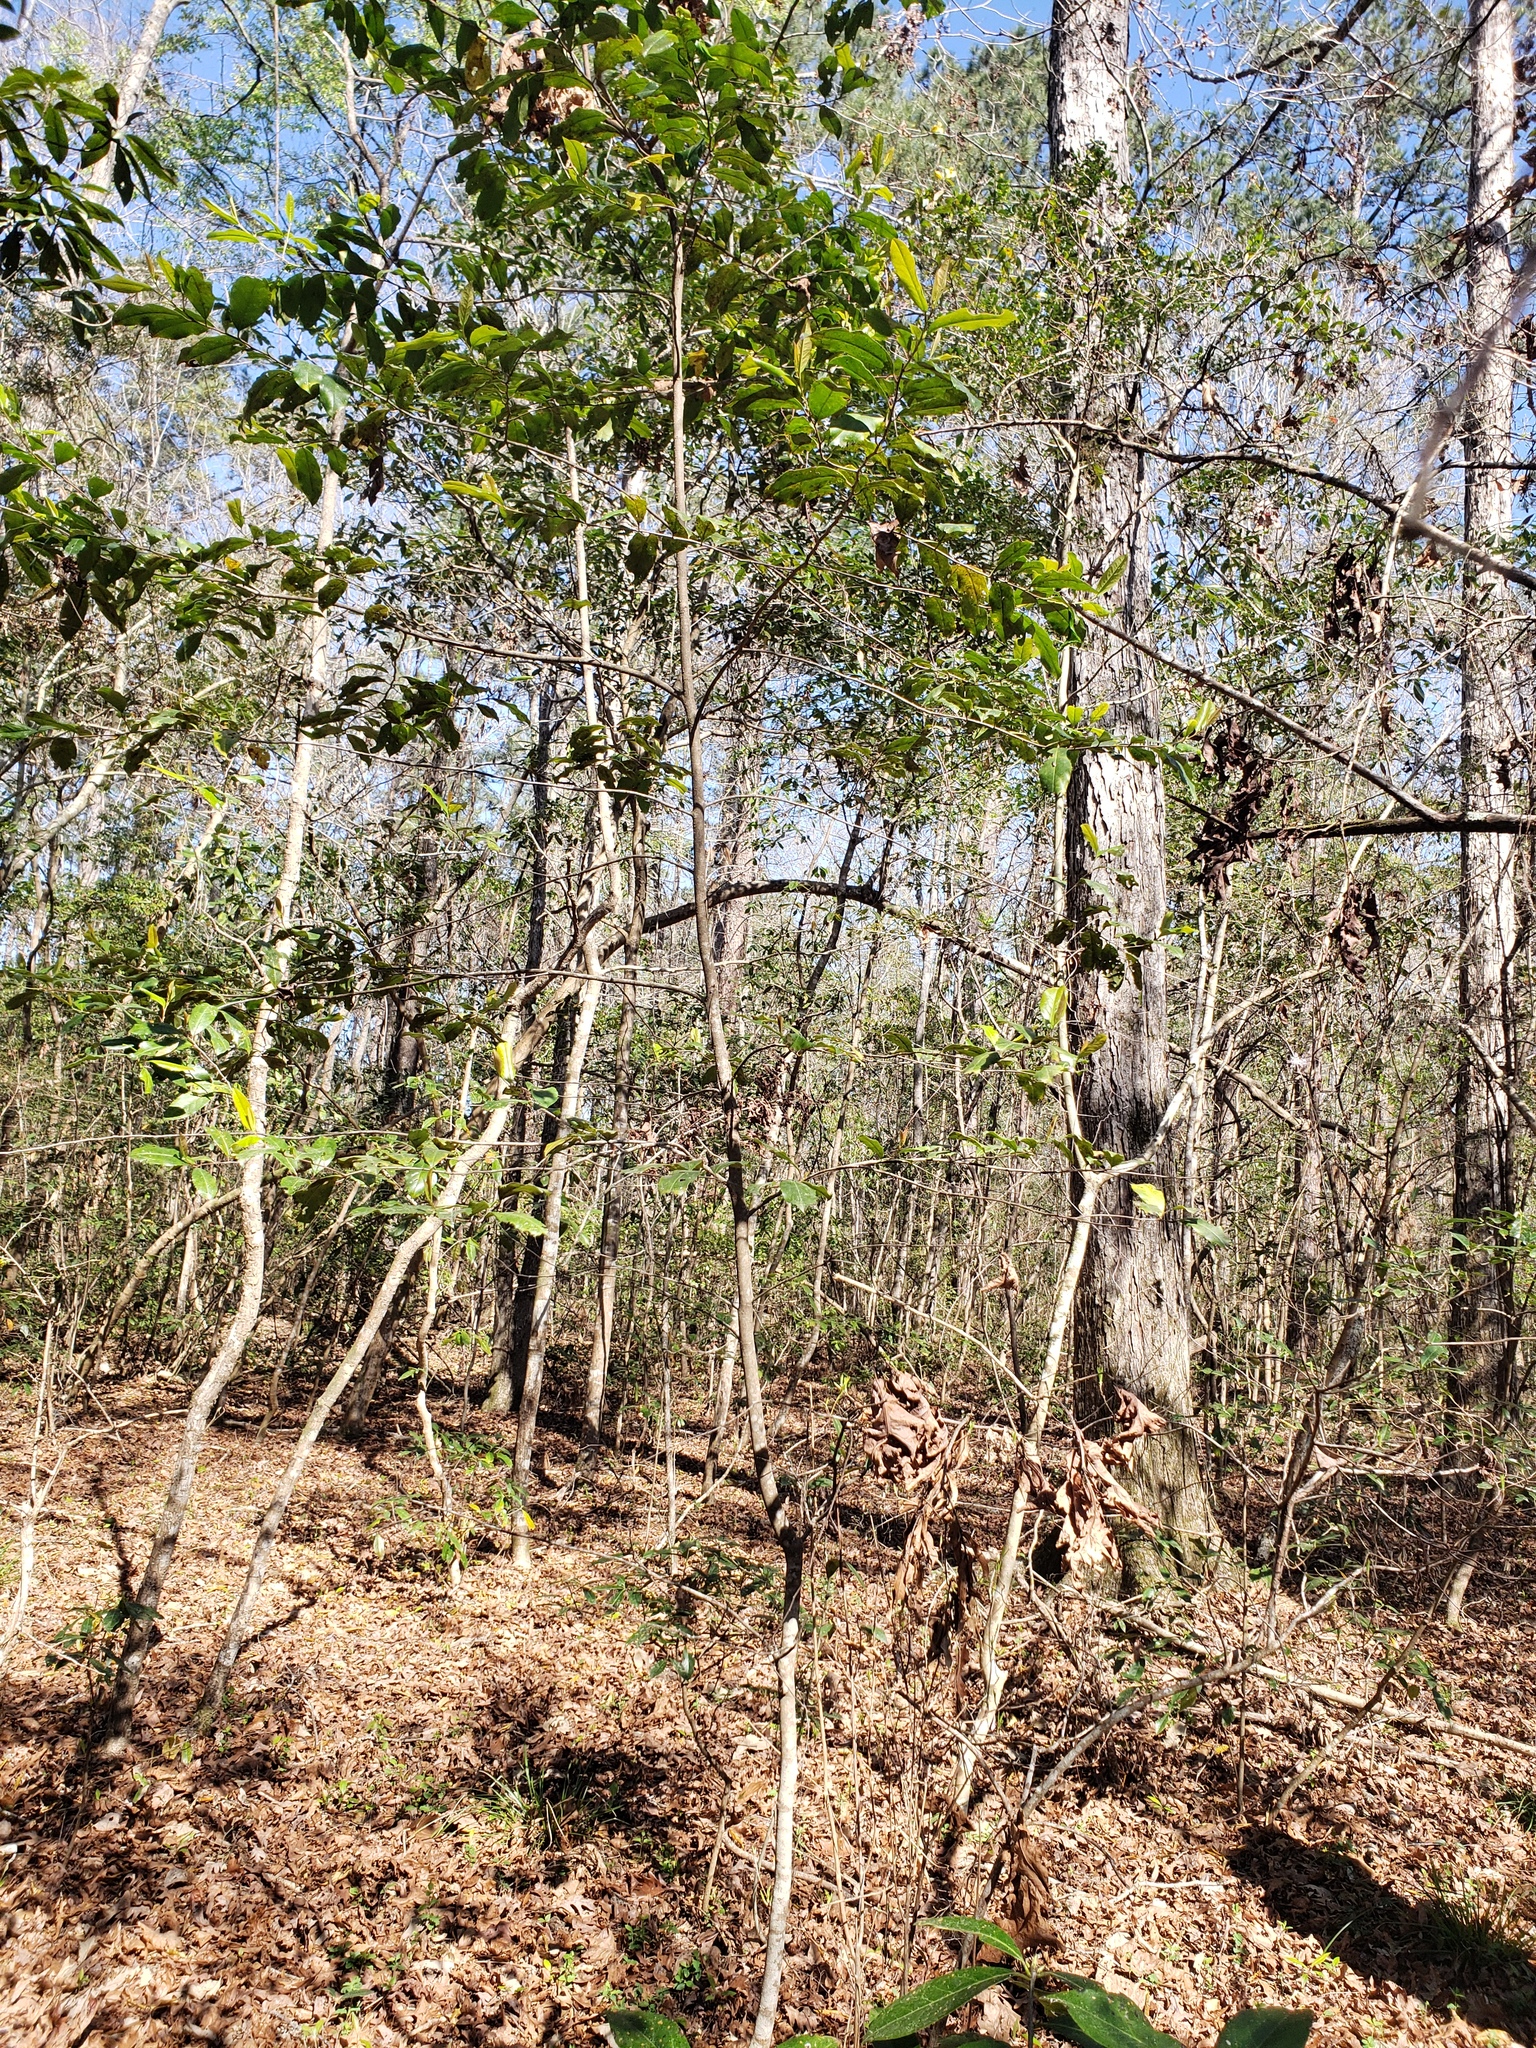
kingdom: Plantae
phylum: Tracheophyta
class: Magnoliopsida
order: Rosales
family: Rosaceae
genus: Prunus
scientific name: Prunus caroliniana
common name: Carolina laurel cherry
